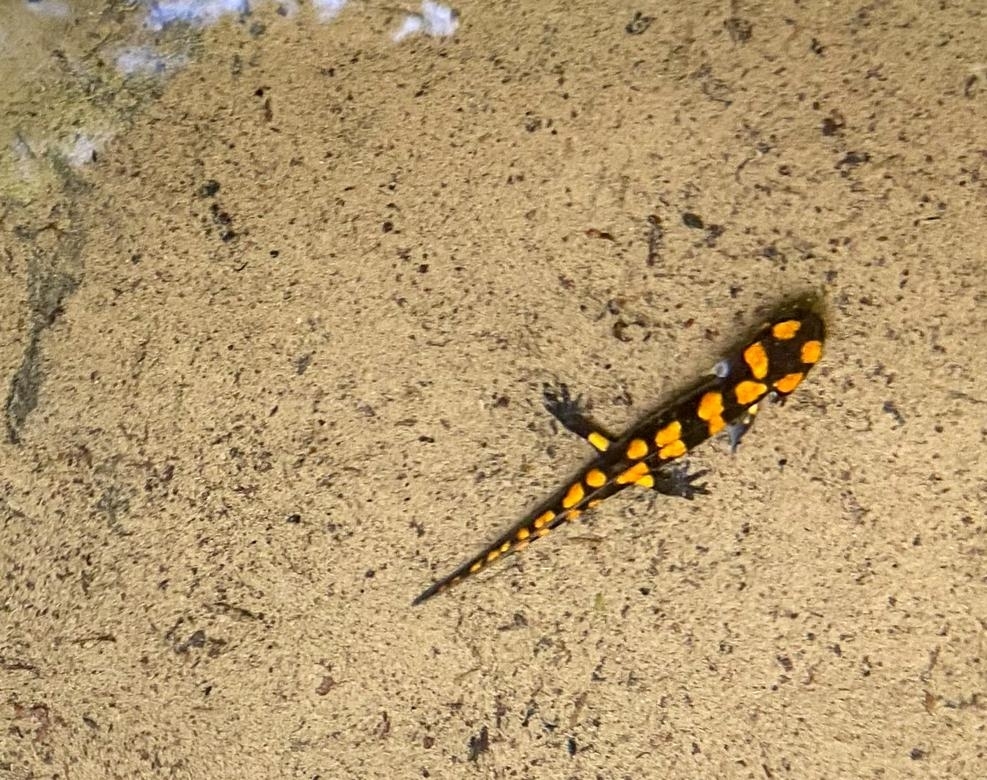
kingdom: Animalia
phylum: Chordata
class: Amphibia
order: Caudata
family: Salamandridae
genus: Salamandra
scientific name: Salamandra salamandra
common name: Fire salamander
